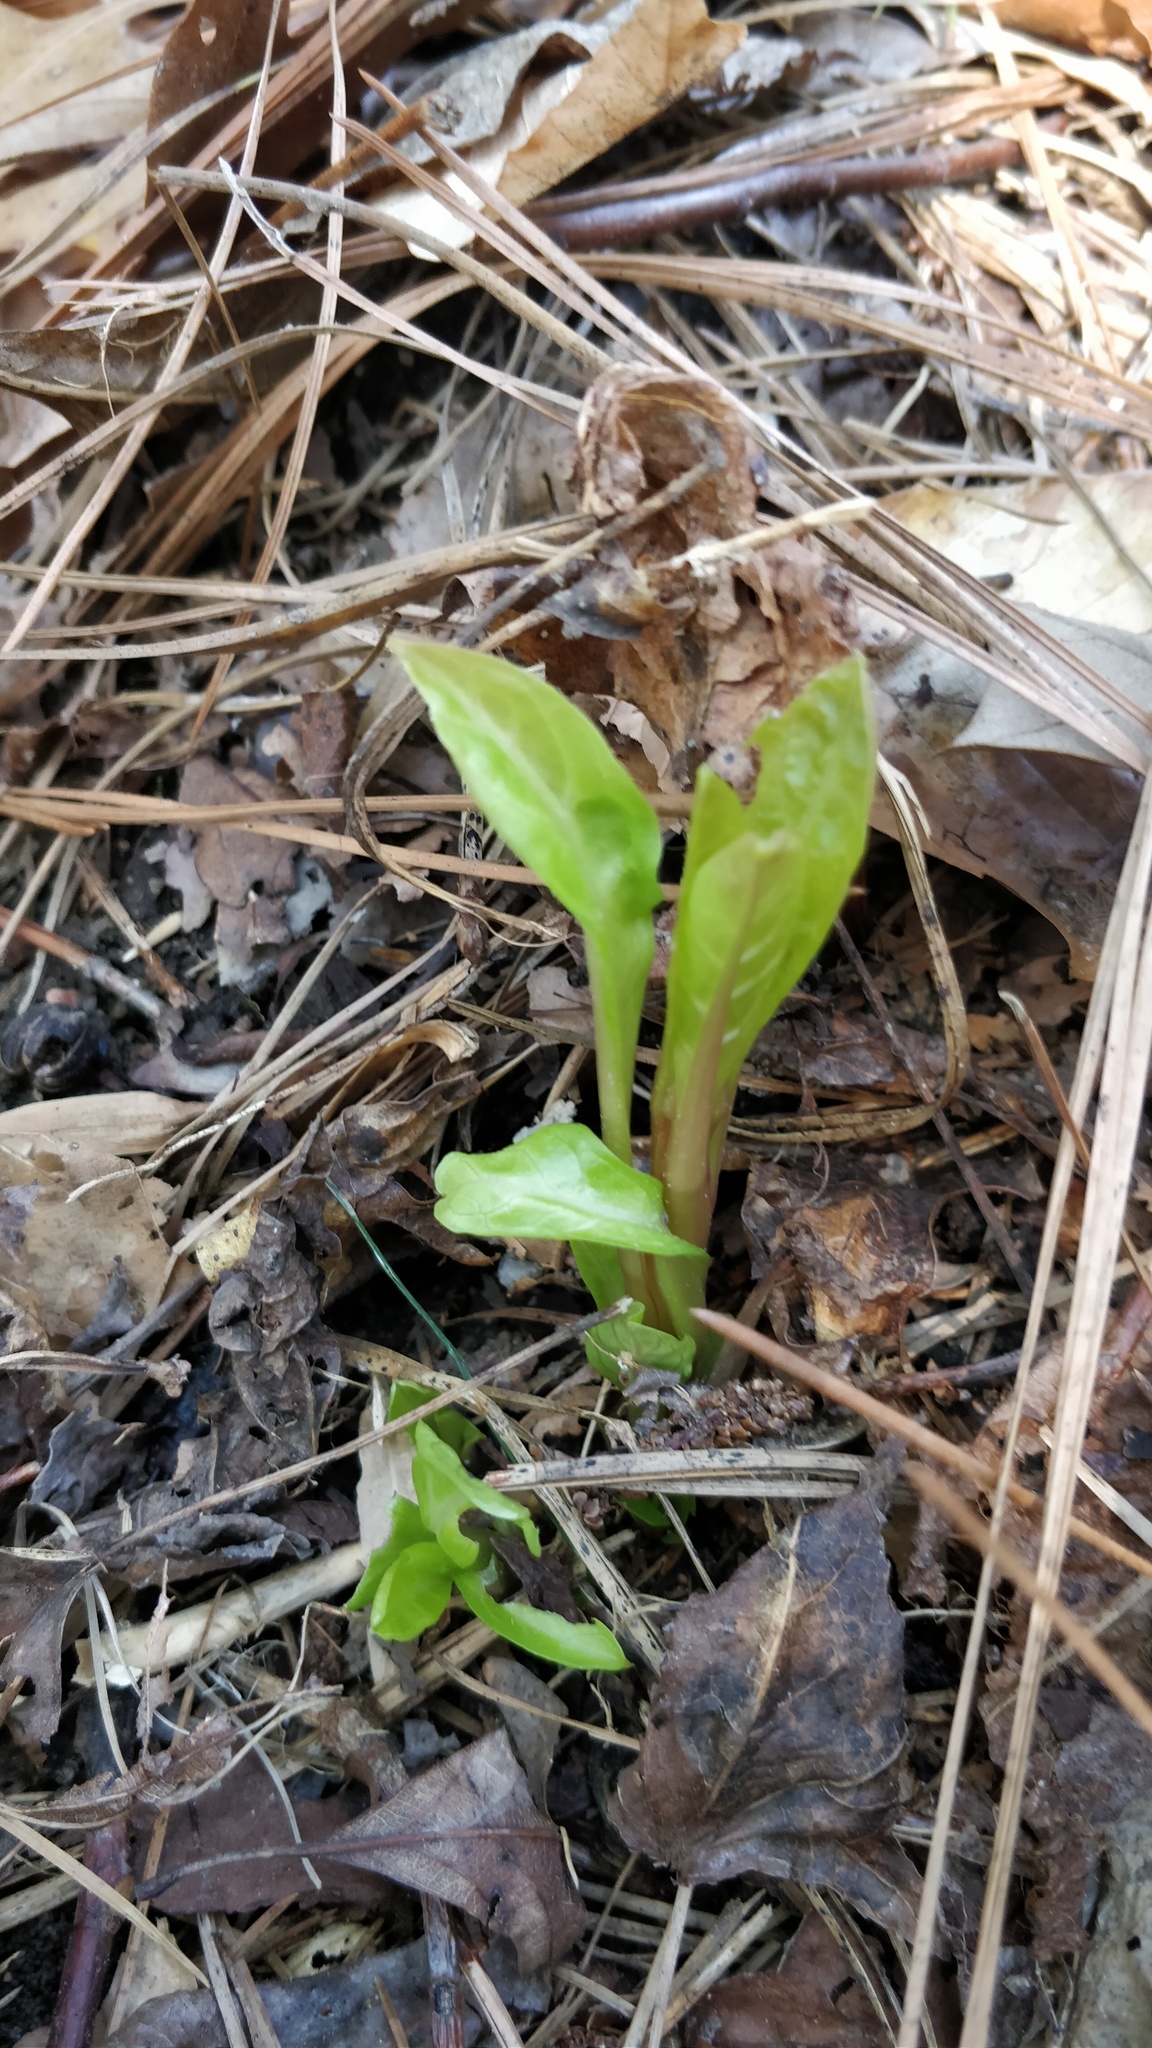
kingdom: Plantae
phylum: Tracheophyta
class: Magnoliopsida
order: Caryophyllales
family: Phytolaccaceae
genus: Phytolacca
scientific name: Phytolacca americana
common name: American pokeweed
